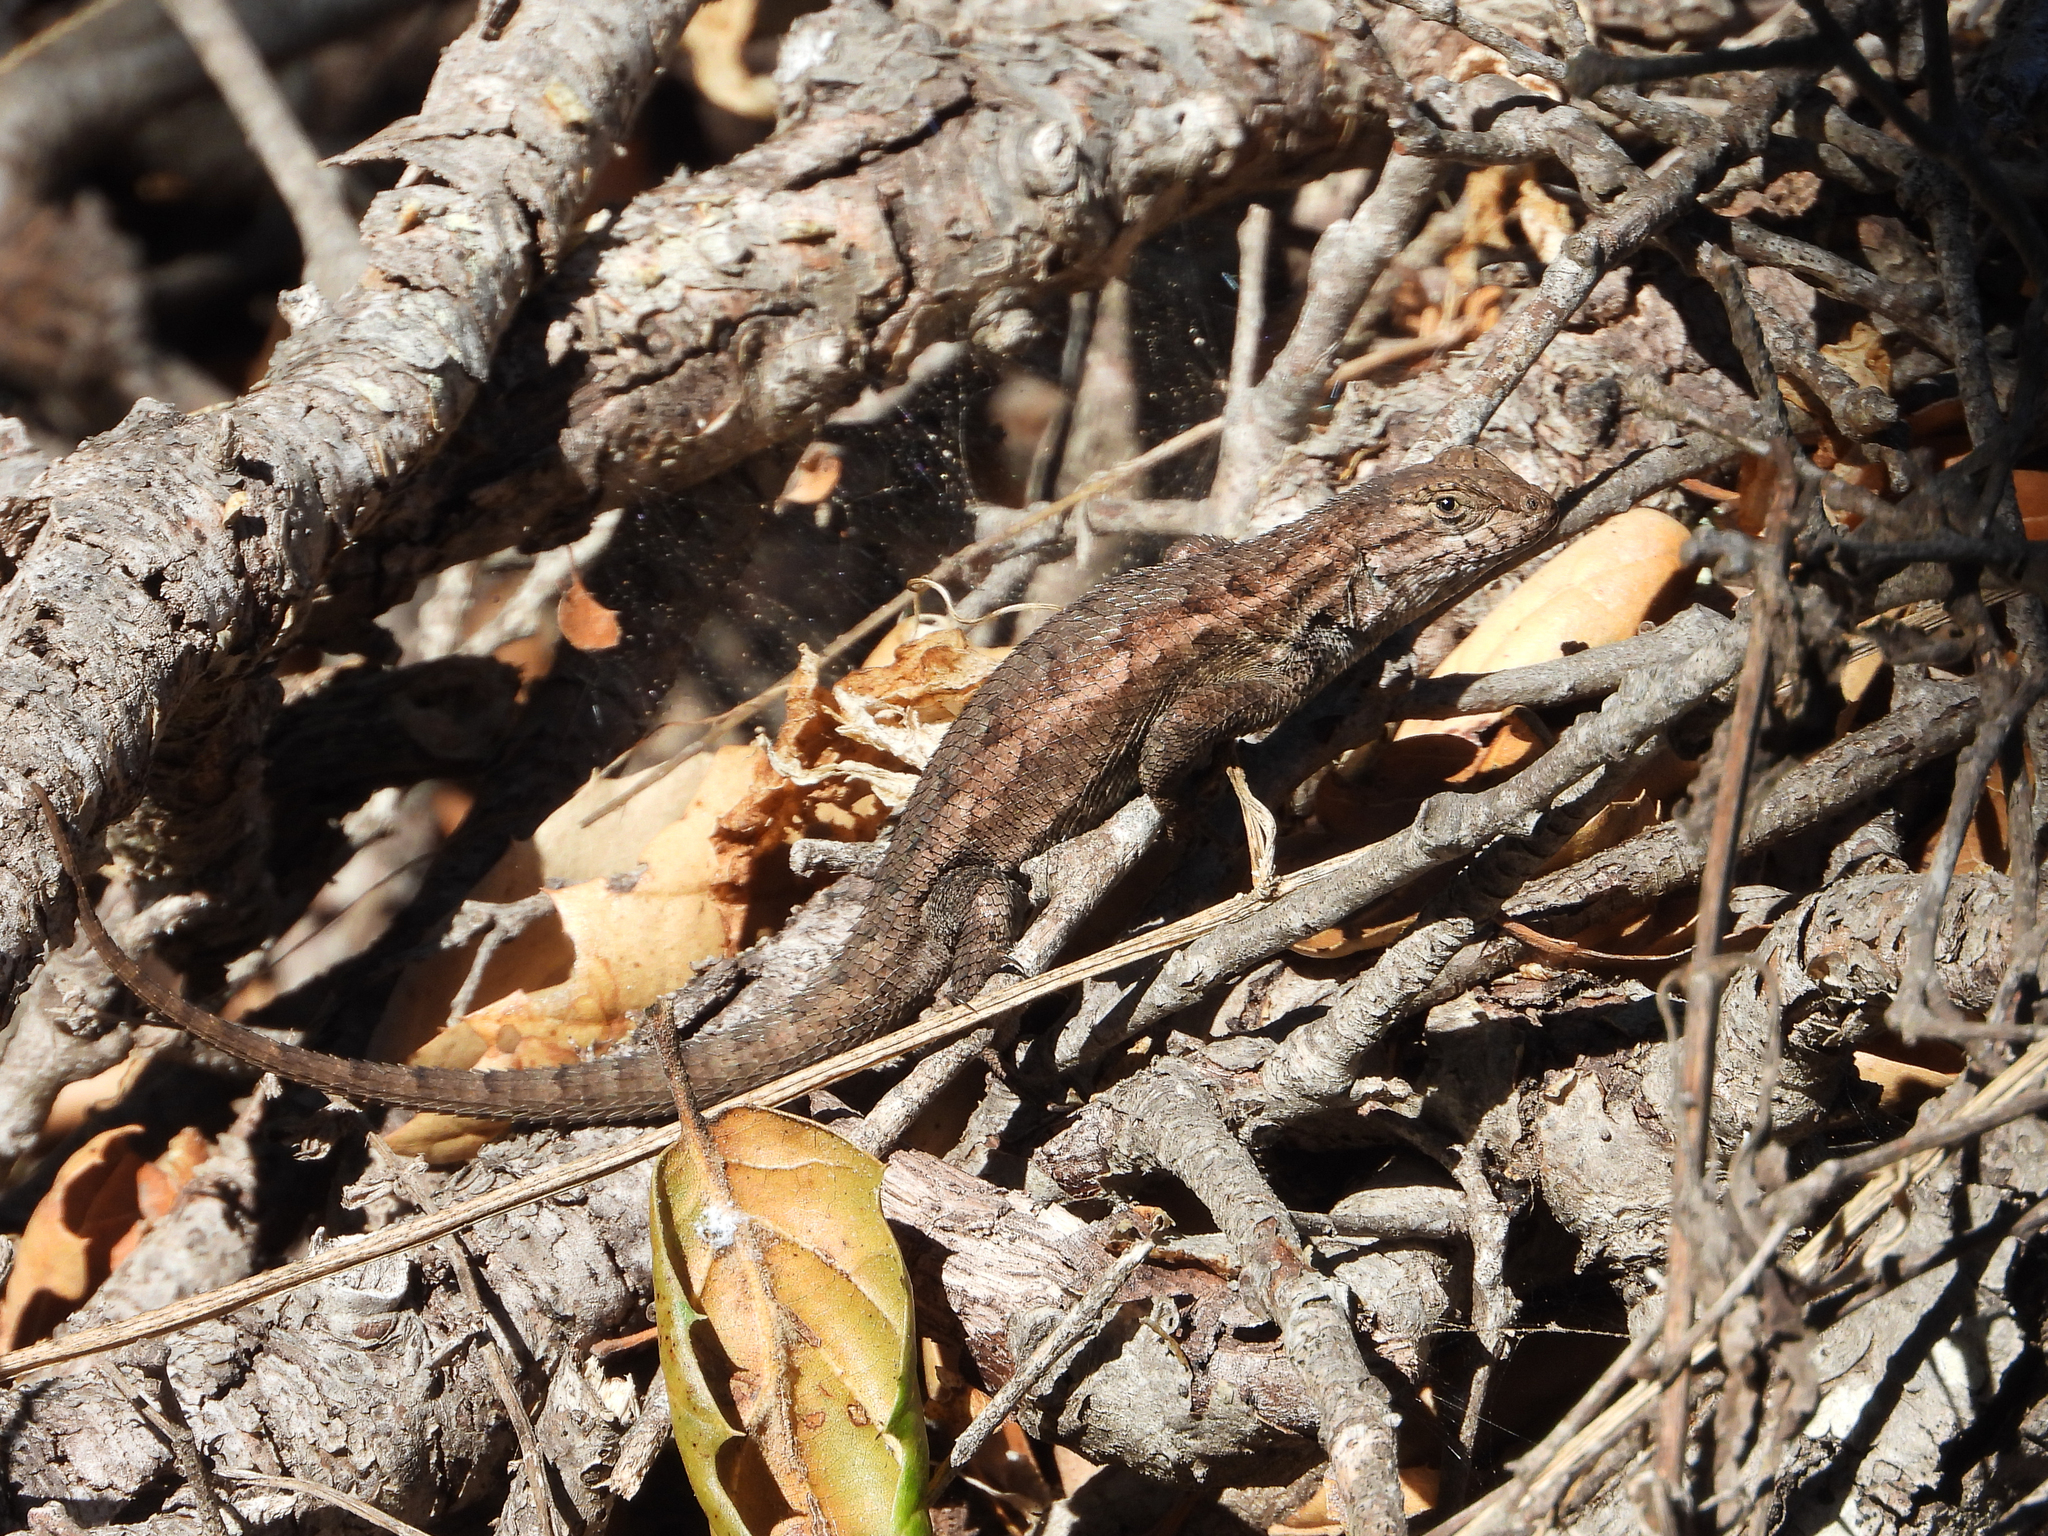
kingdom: Animalia
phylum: Chordata
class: Squamata
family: Phrynosomatidae
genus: Sceloporus
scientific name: Sceloporus occidentalis
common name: Western fence lizard
